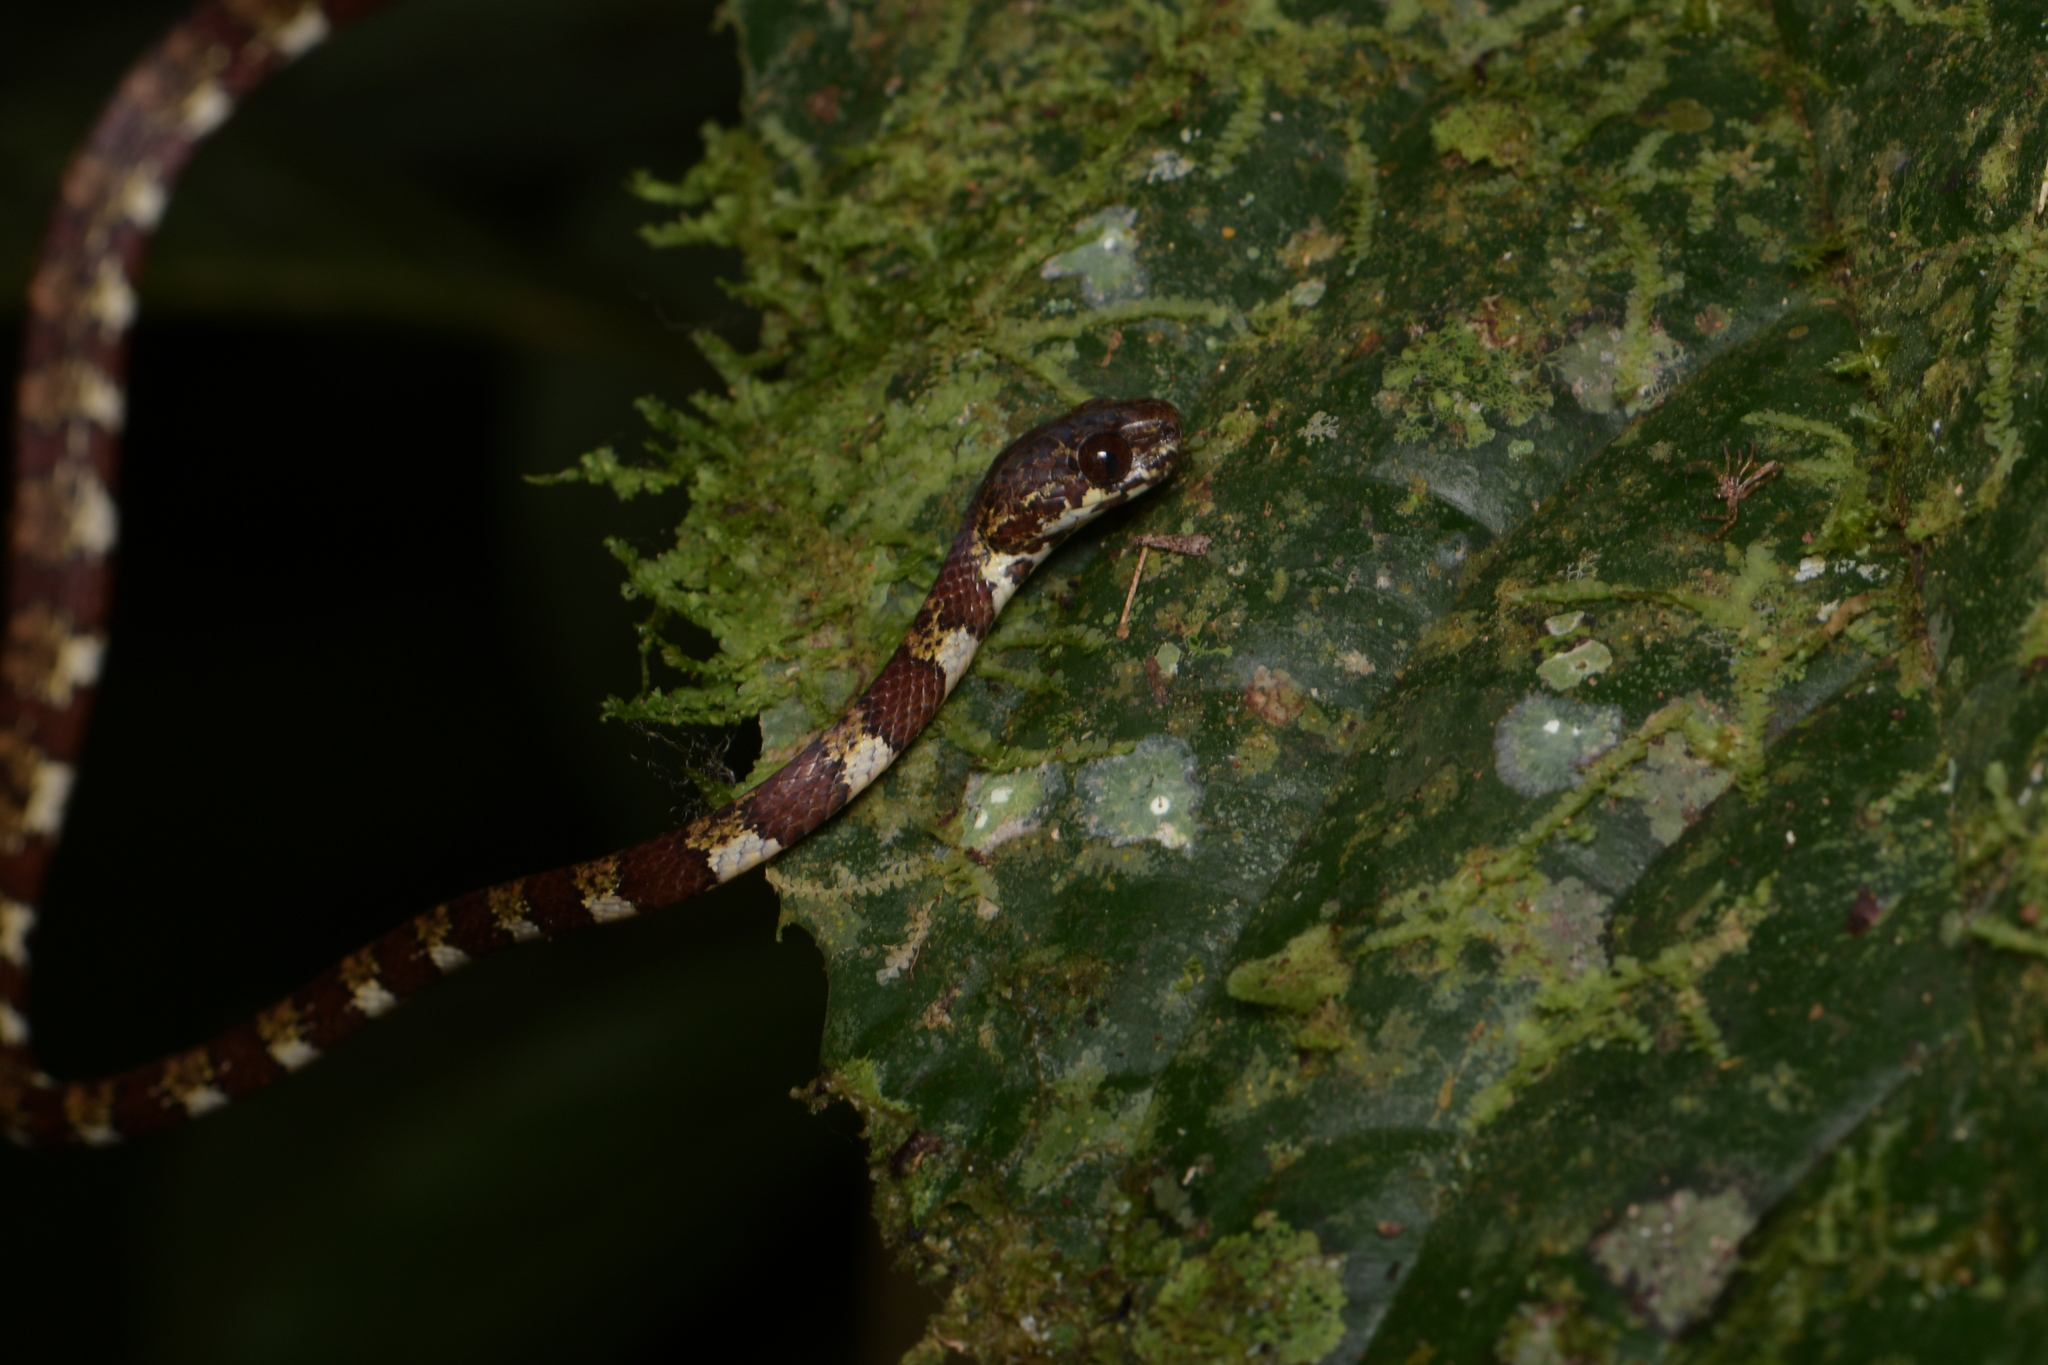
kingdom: Animalia
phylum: Chordata
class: Squamata
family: Colubridae
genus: Sibon
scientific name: Sibon annulatus
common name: Ringed snail sucker
